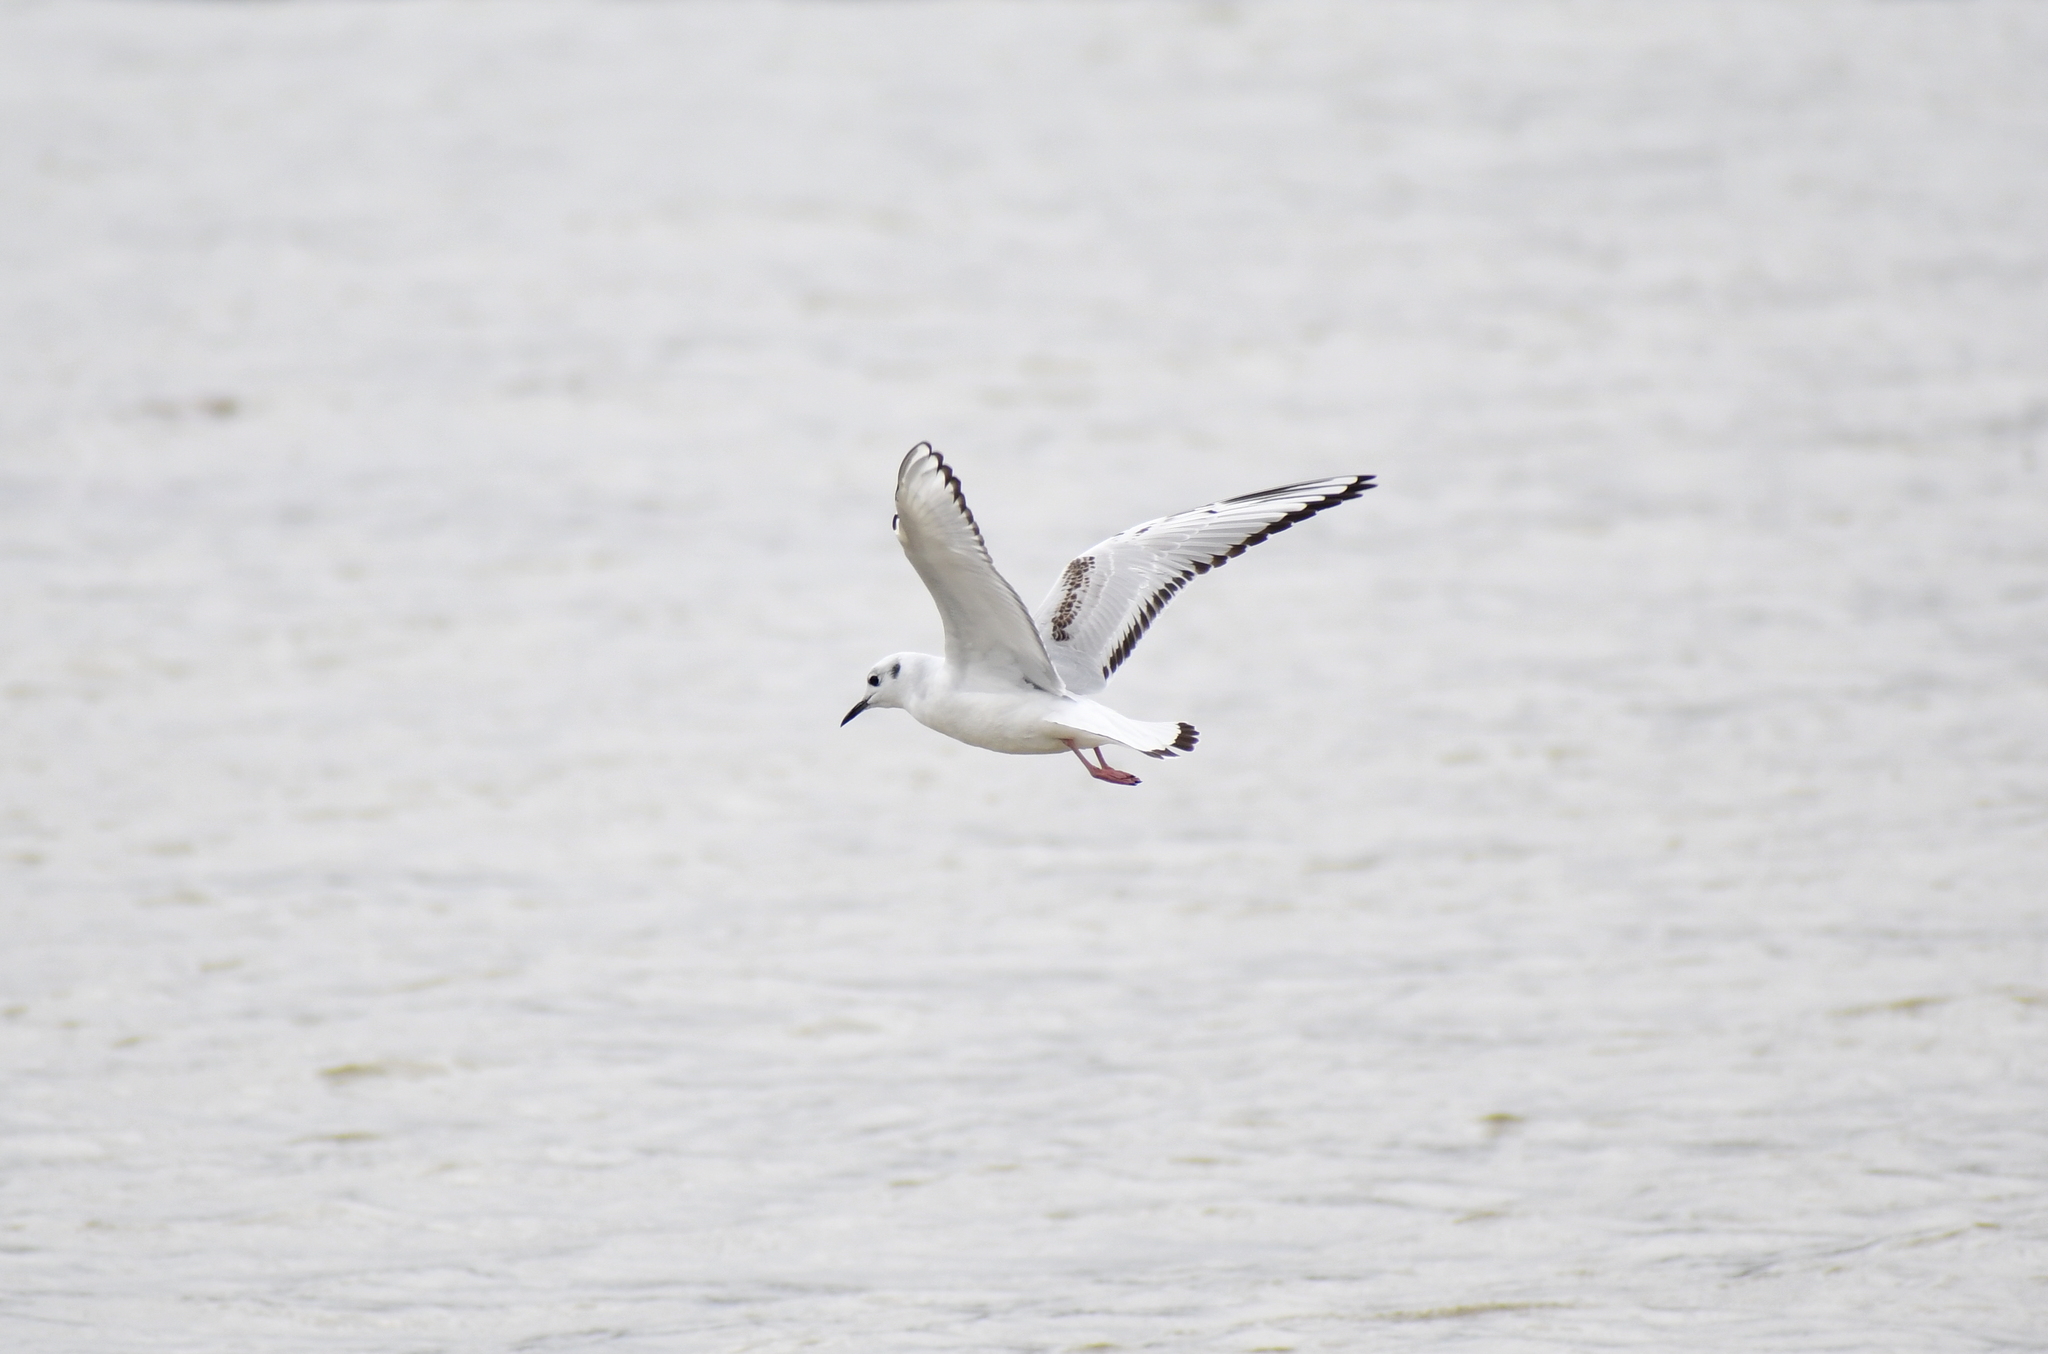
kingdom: Animalia
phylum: Chordata
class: Aves
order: Charadriiformes
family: Laridae
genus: Chroicocephalus
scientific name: Chroicocephalus philadelphia
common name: Bonaparte's gull
